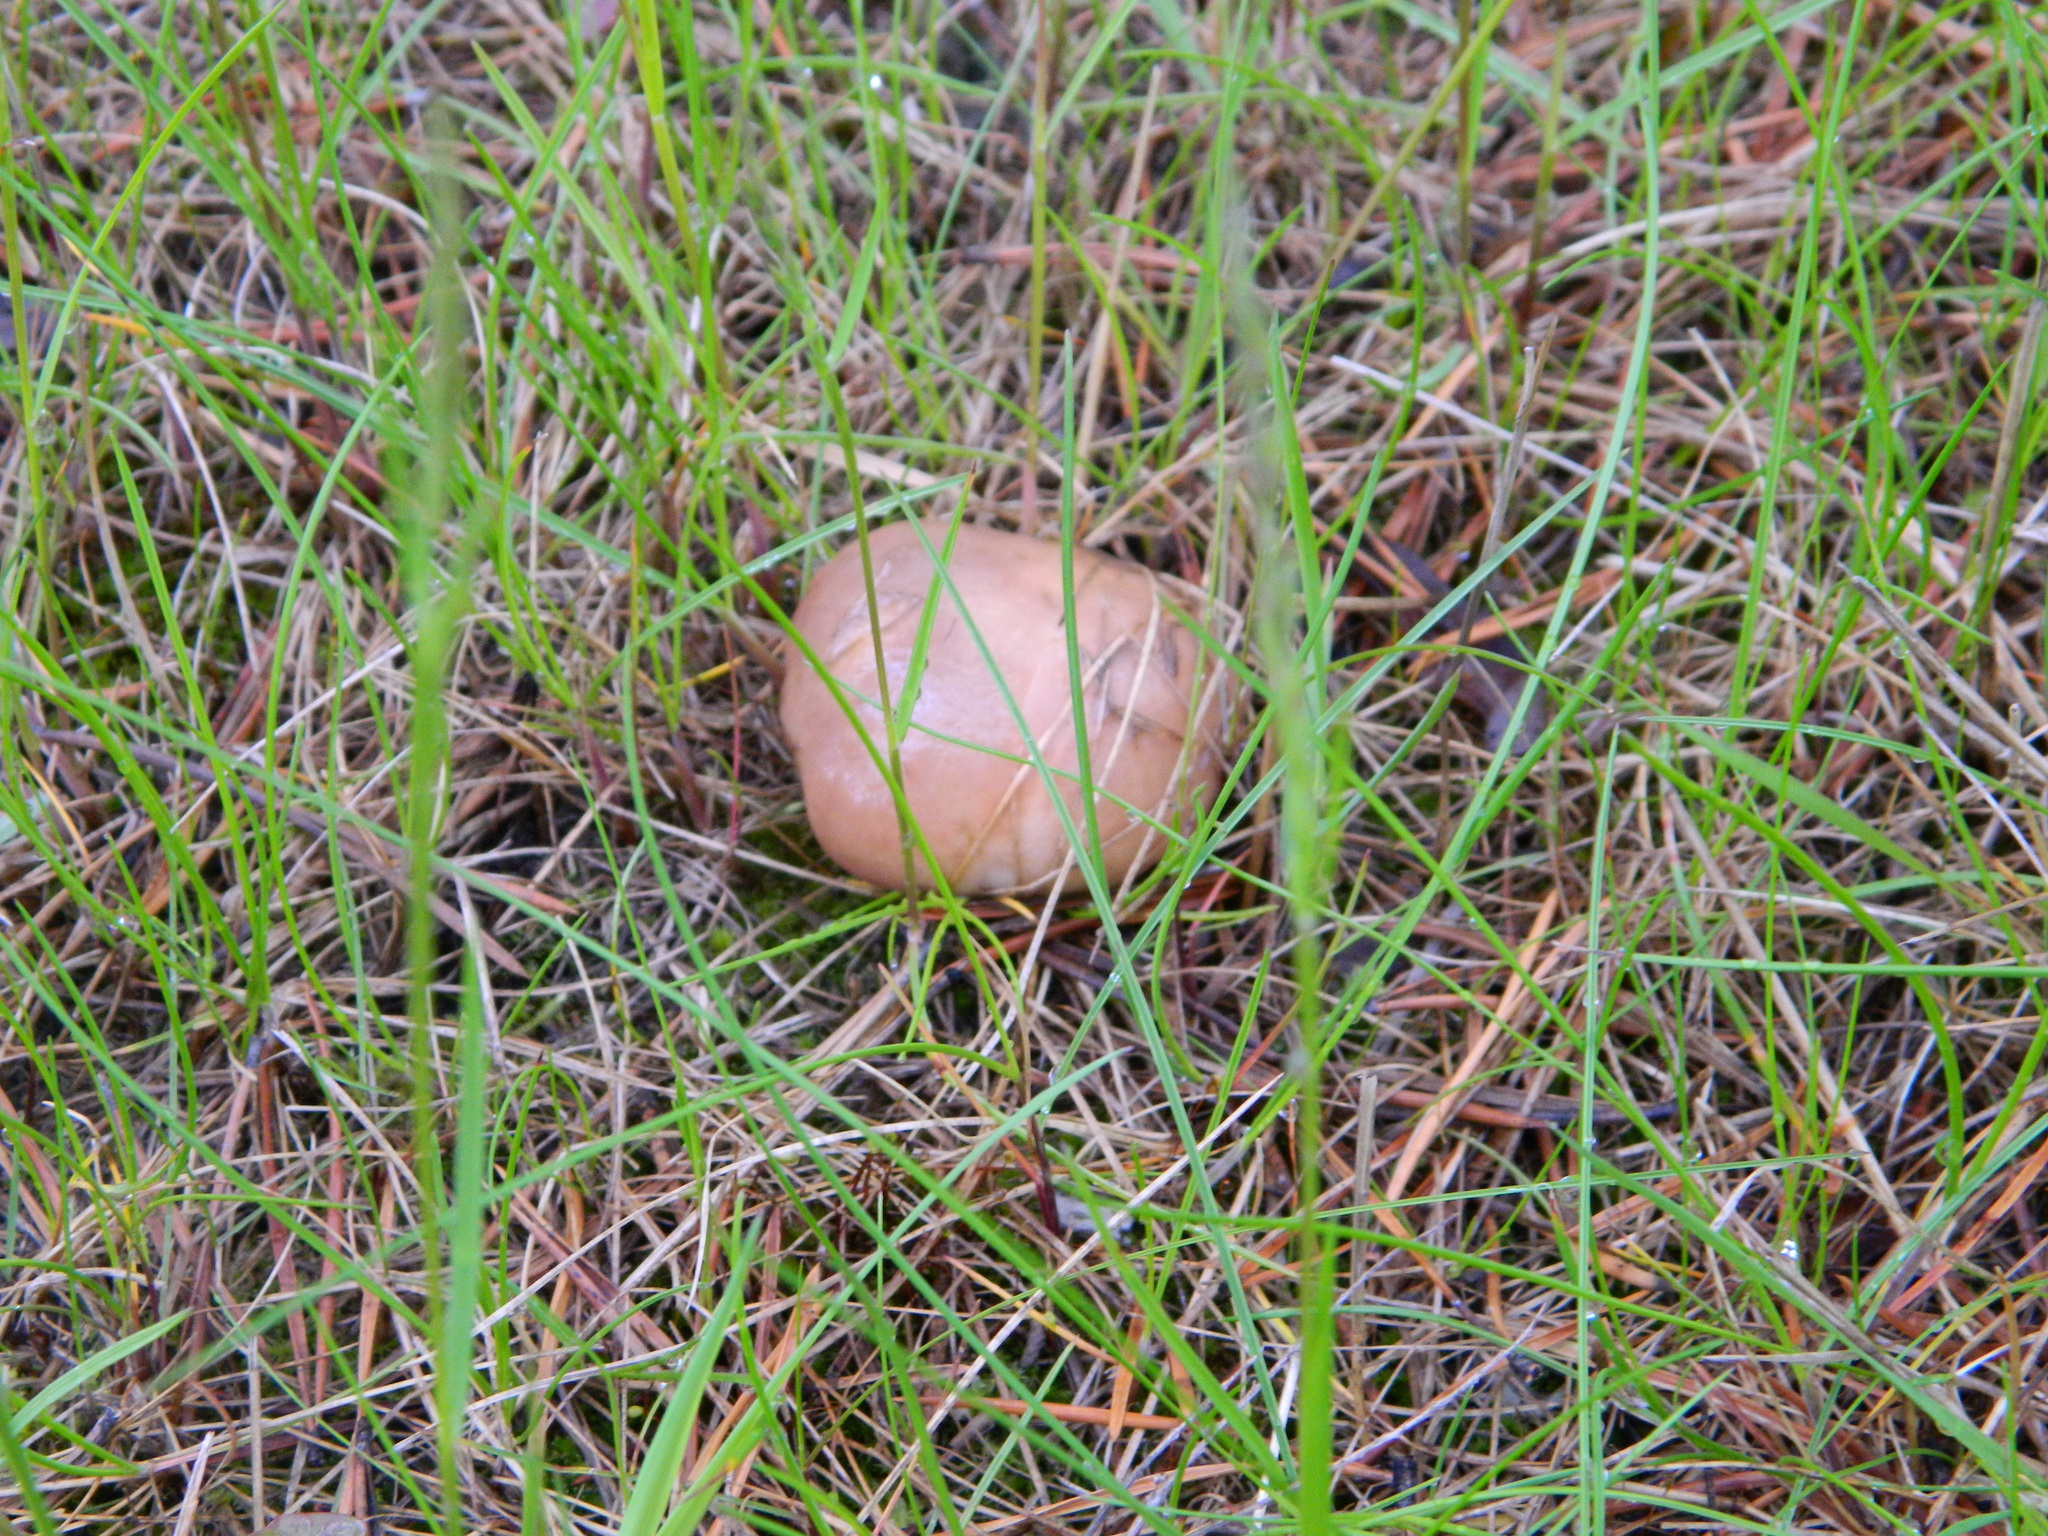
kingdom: Fungi
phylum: Basidiomycota
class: Agaricomycetes
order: Boletales
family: Suillaceae
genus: Suillus
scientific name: Suillus luteus
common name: Slippery jack
